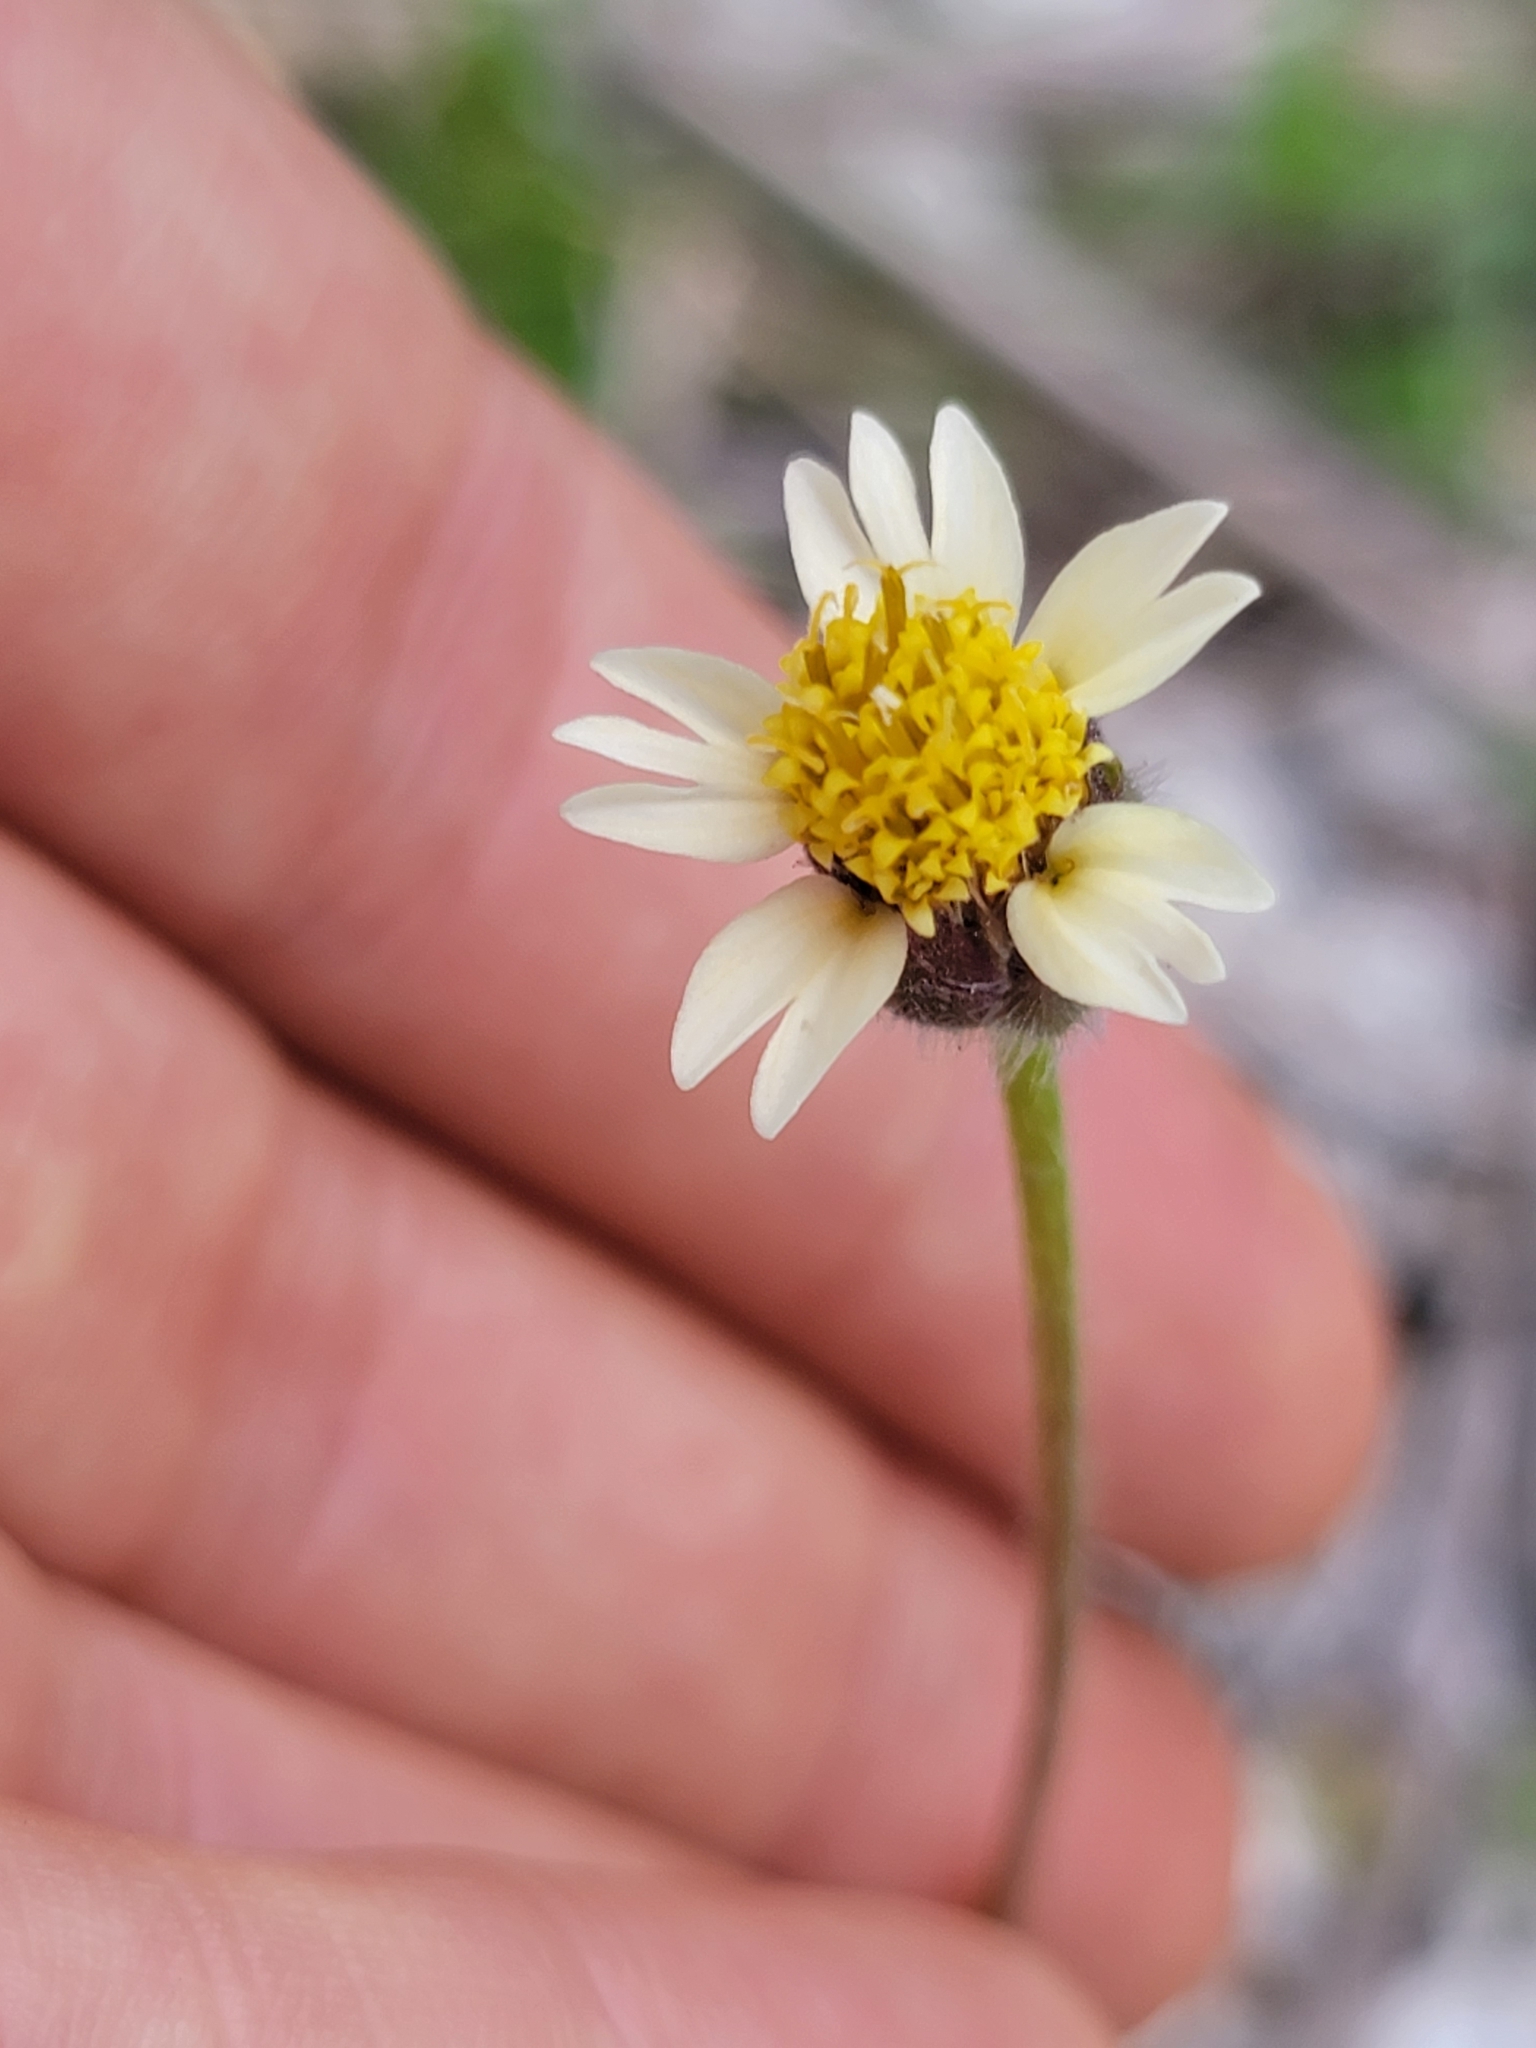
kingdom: Plantae
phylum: Tracheophyta
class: Magnoliopsida
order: Asterales
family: Asteraceae
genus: Tridax
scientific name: Tridax procumbens
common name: Coatbuttons
